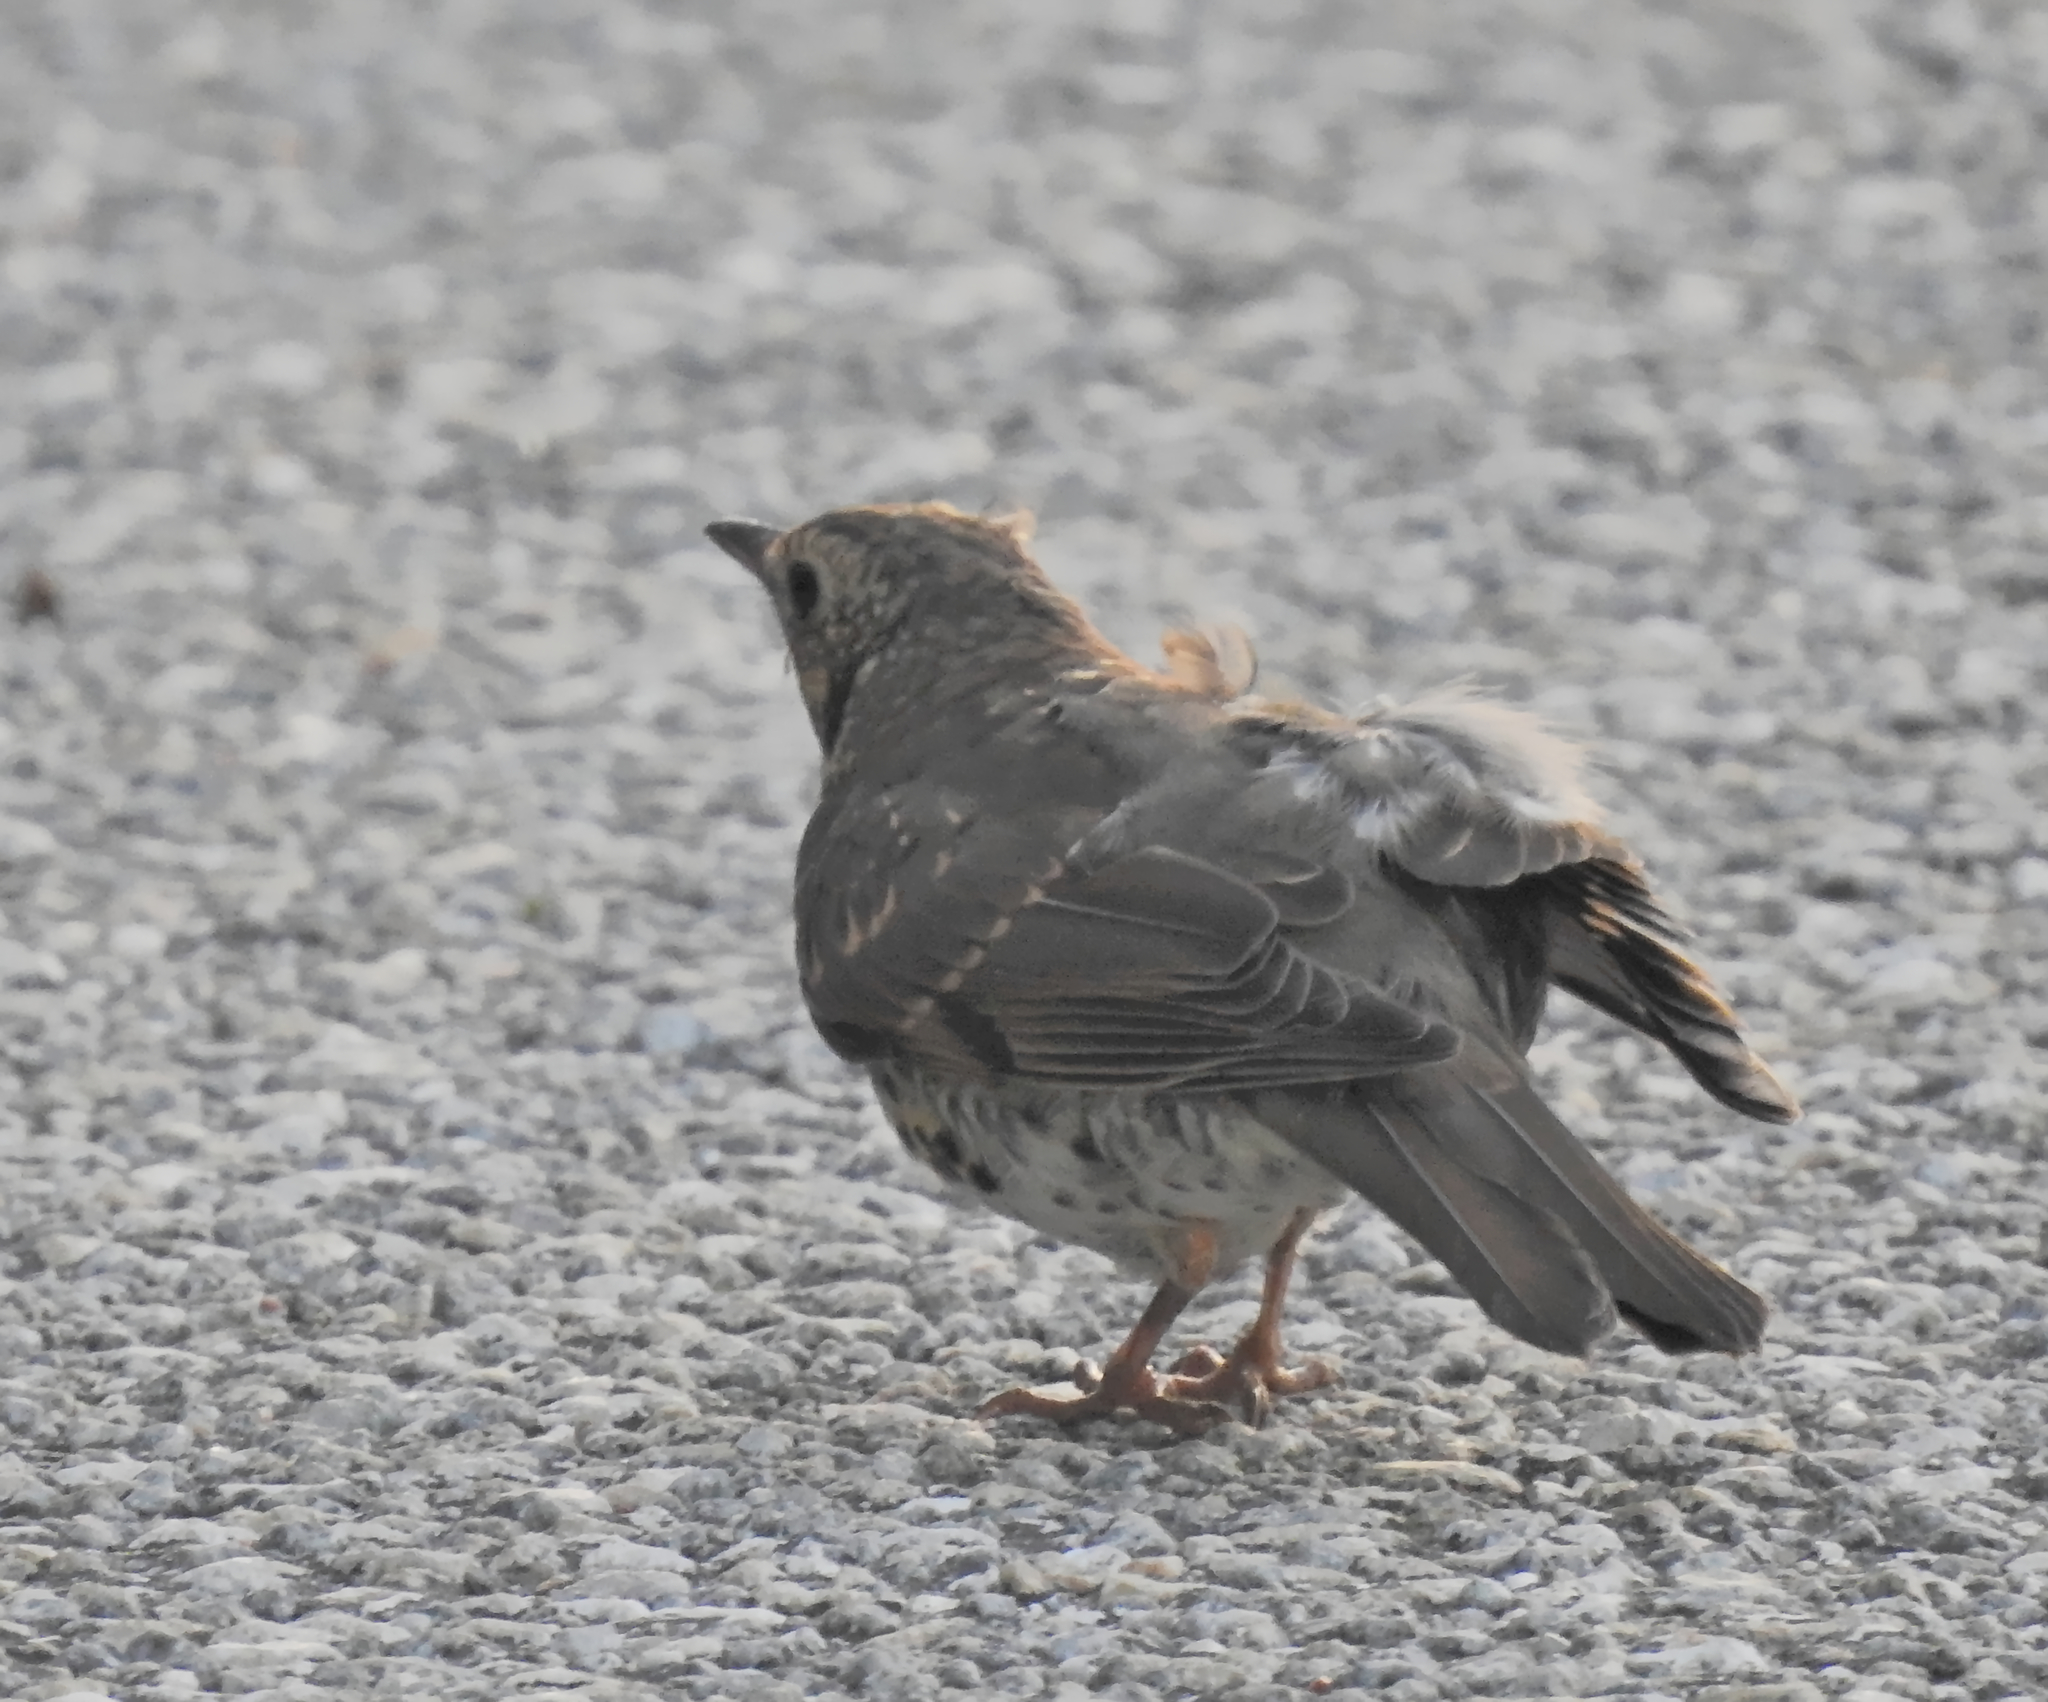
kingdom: Animalia
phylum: Chordata
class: Aves
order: Passeriformes
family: Turdidae
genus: Turdus
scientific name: Turdus viscivorus
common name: Mistle thrush
